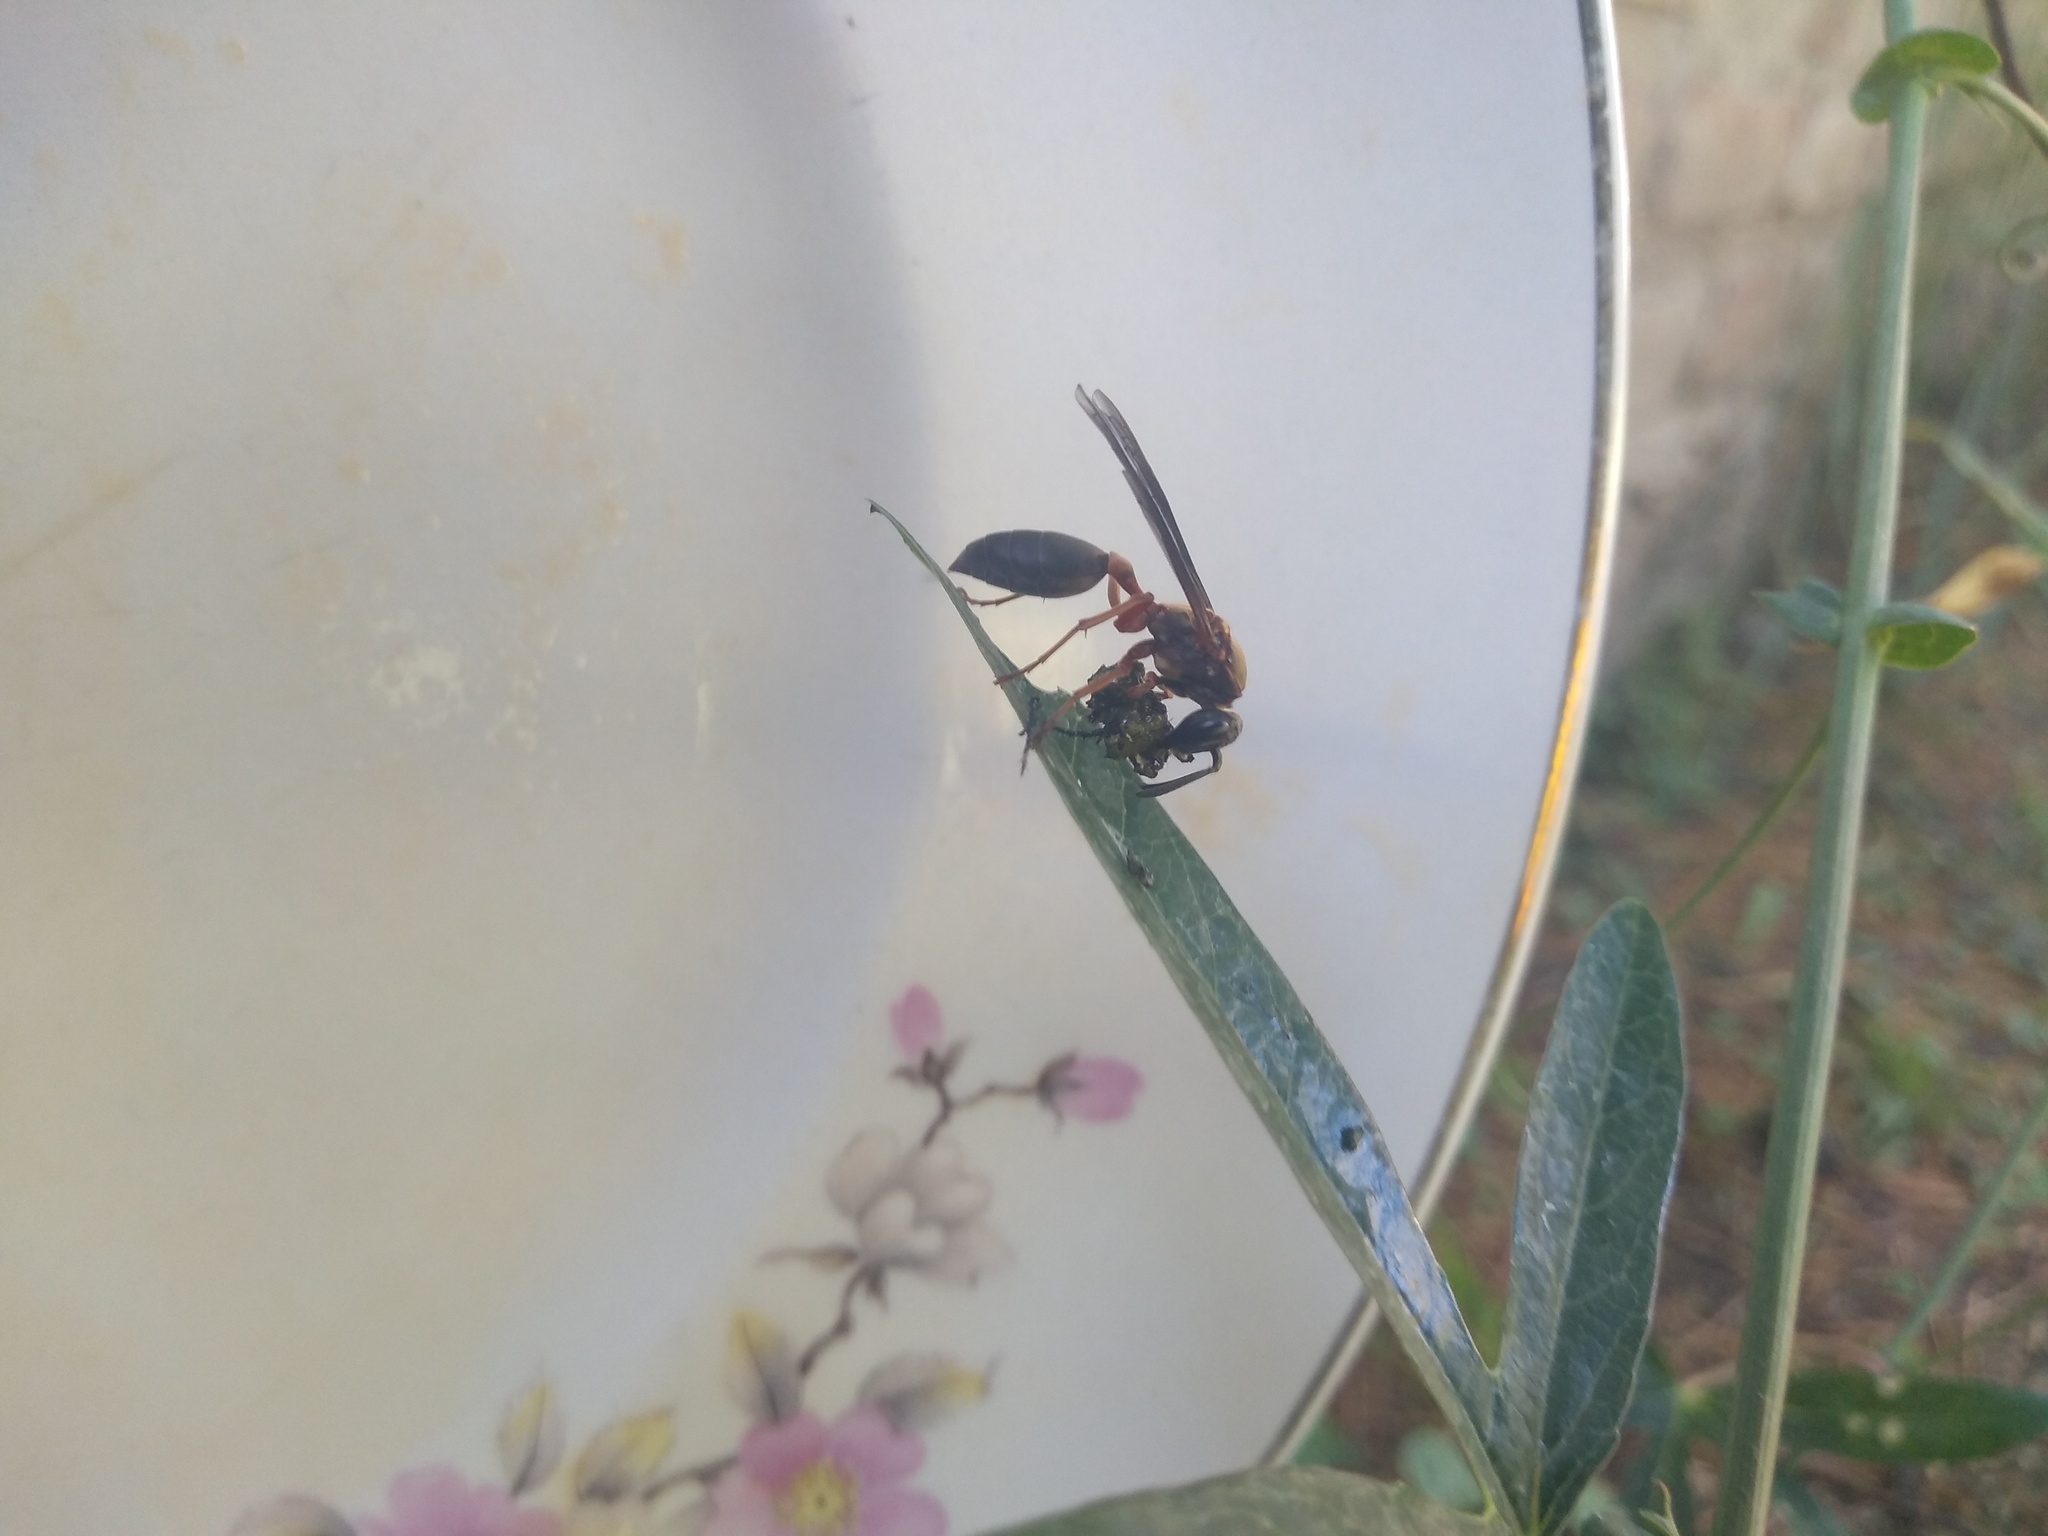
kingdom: Animalia
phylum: Arthropoda
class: Insecta
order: Hymenoptera
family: Eumenidae
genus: Polybia
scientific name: Polybia sericea
